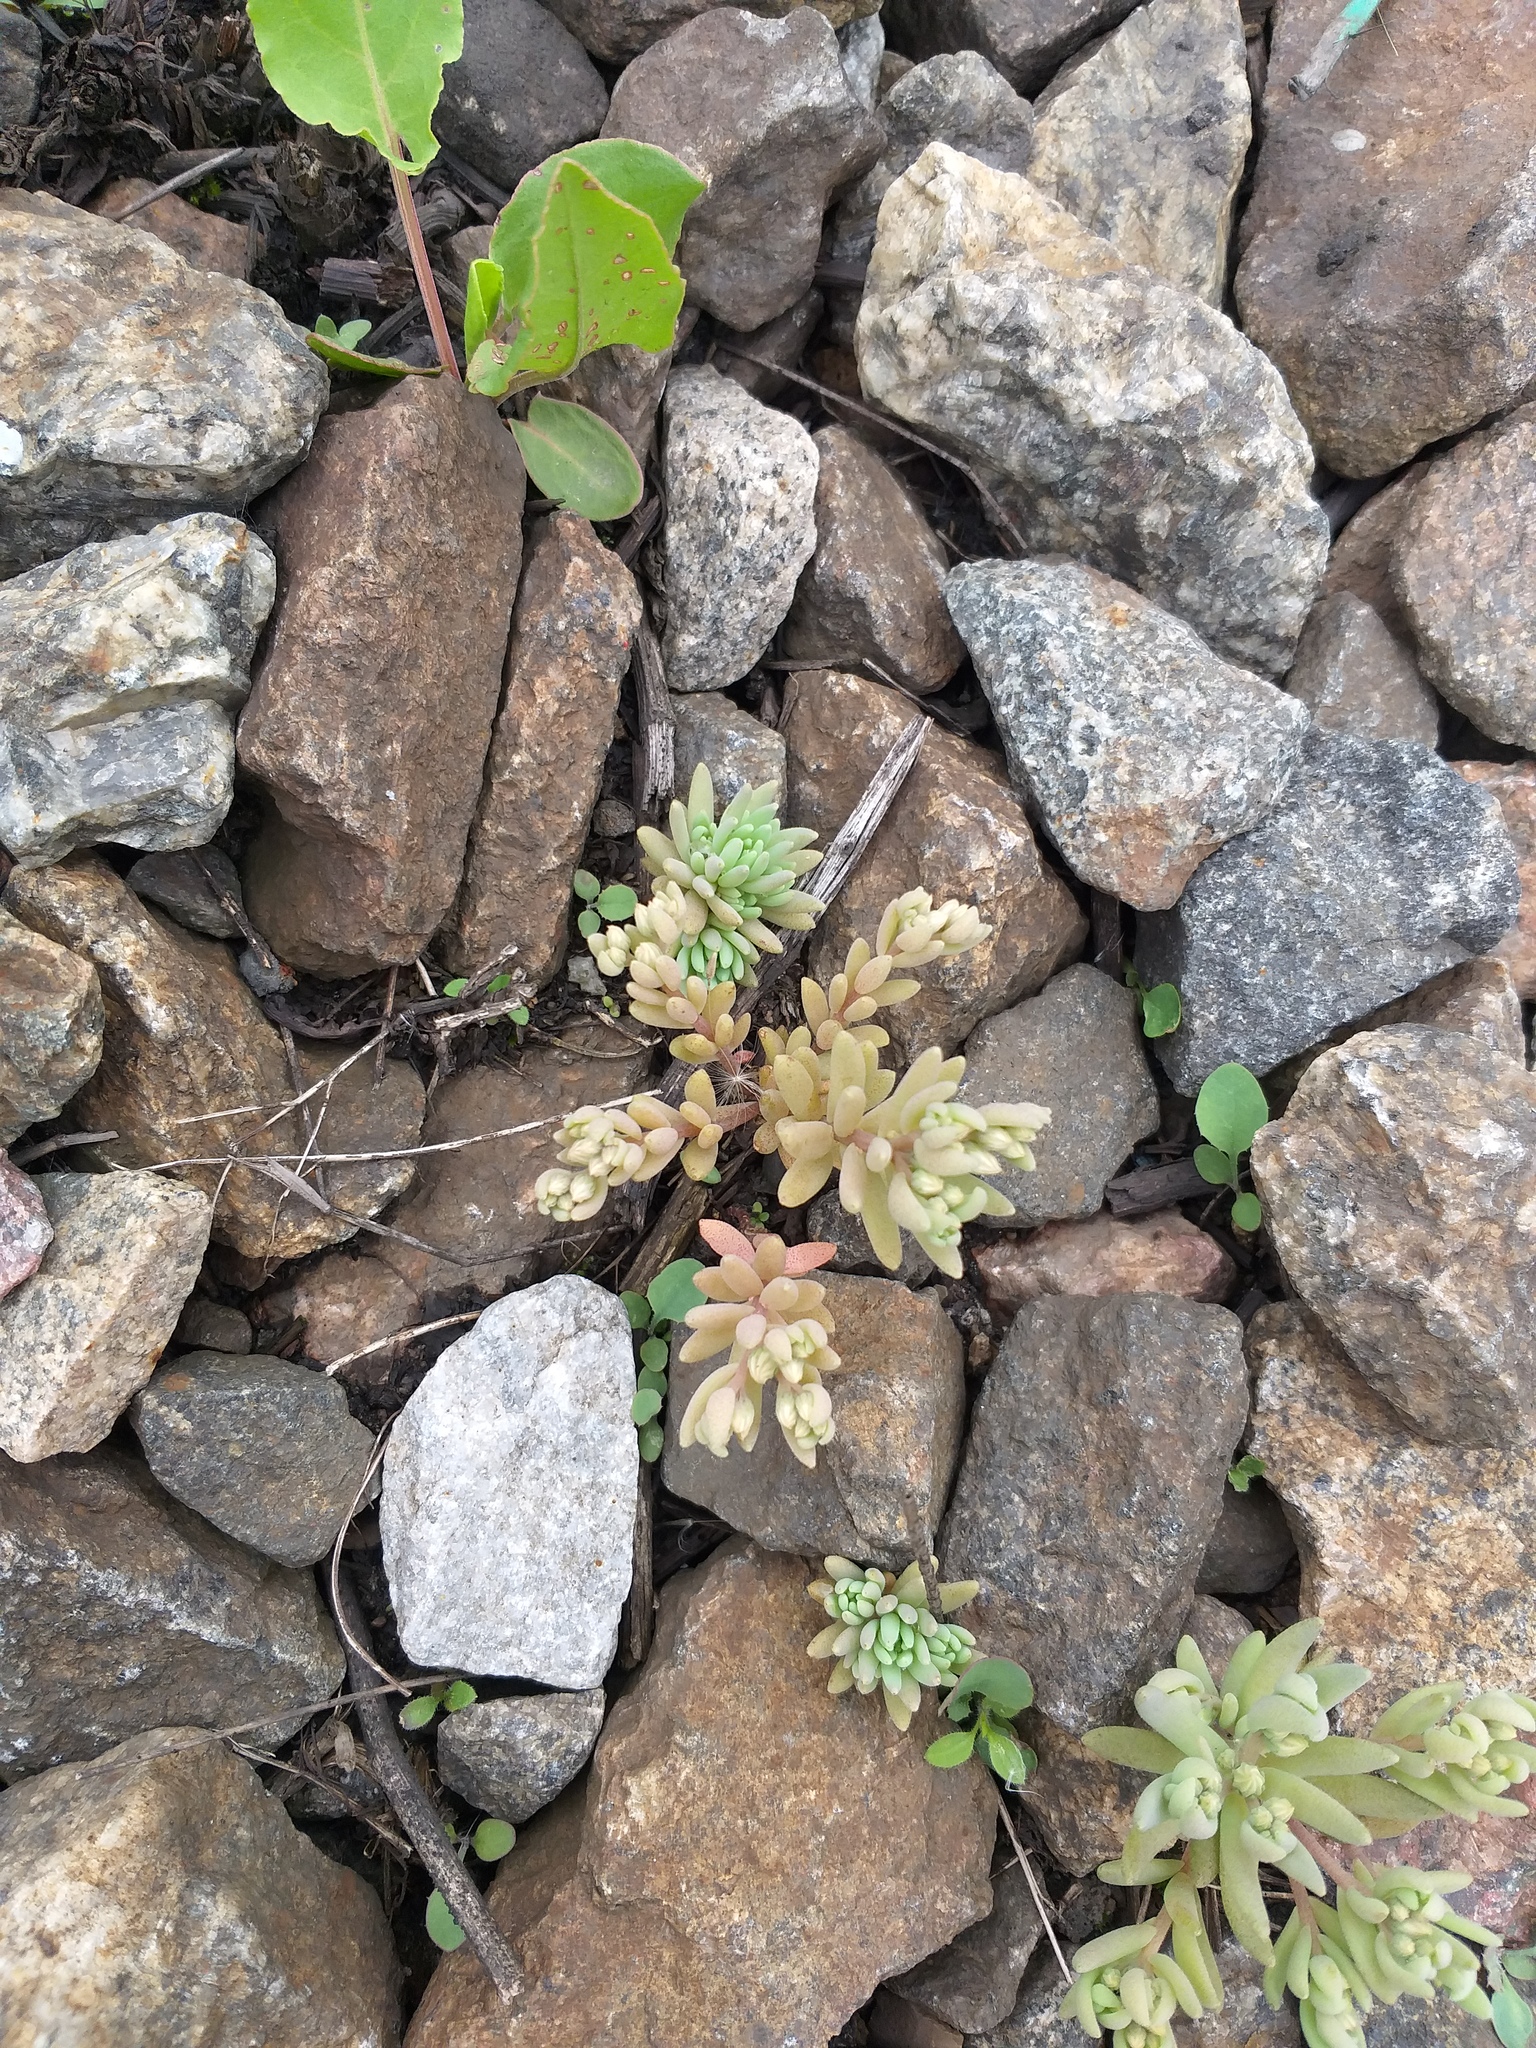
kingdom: Plantae
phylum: Tracheophyta
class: Magnoliopsida
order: Saxifragales
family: Crassulaceae
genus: Sedum
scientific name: Sedum hispanicum
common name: Spanish stonecrop
